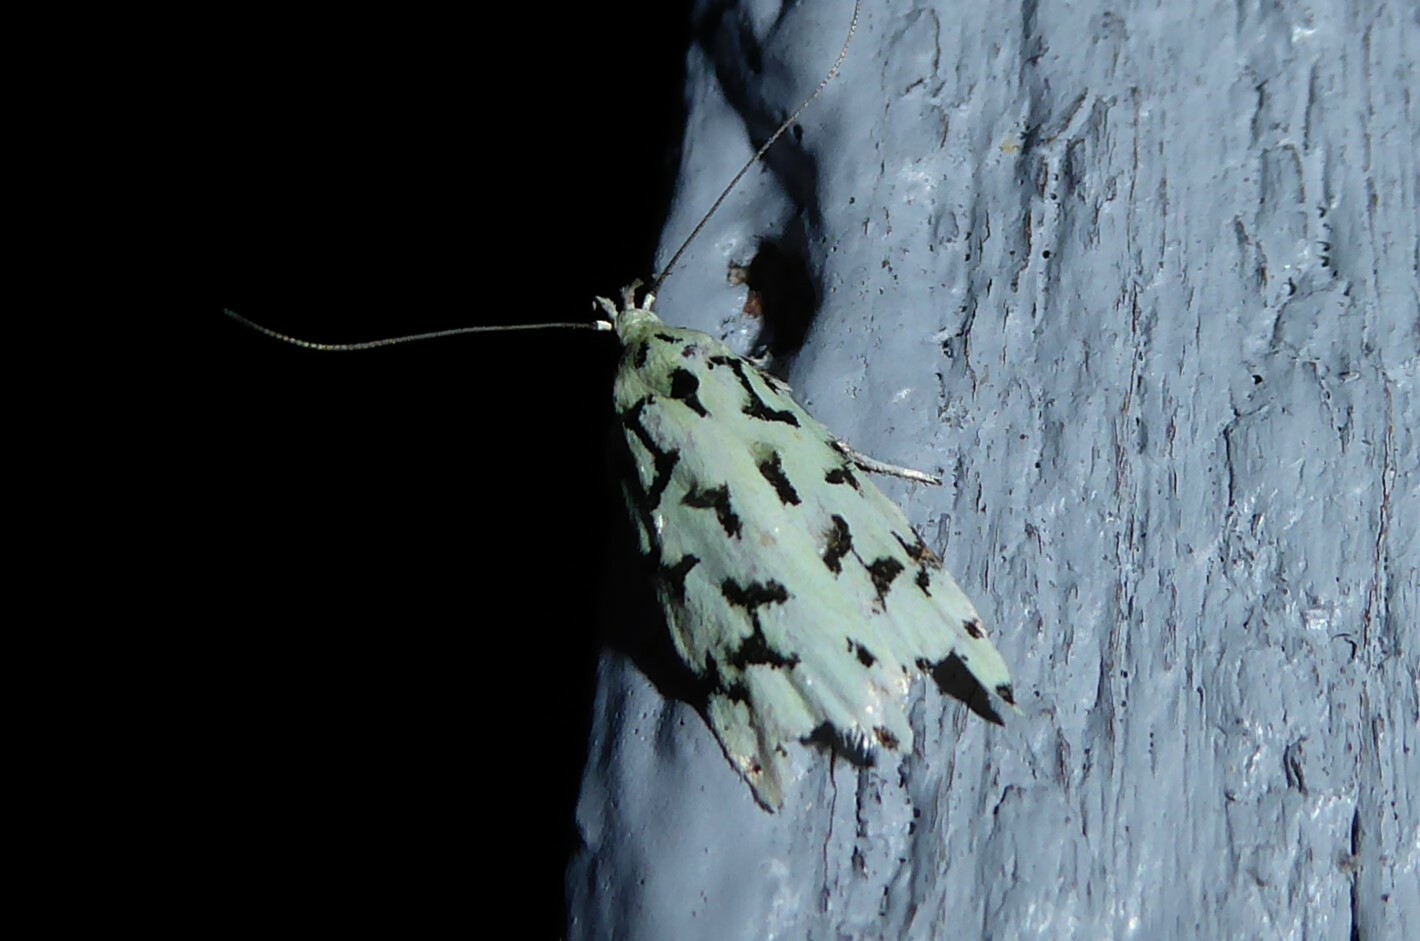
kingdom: Animalia
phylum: Arthropoda
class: Insecta
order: Lepidoptera
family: Oecophoridae
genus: Izatha
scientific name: Izatha huttoni
